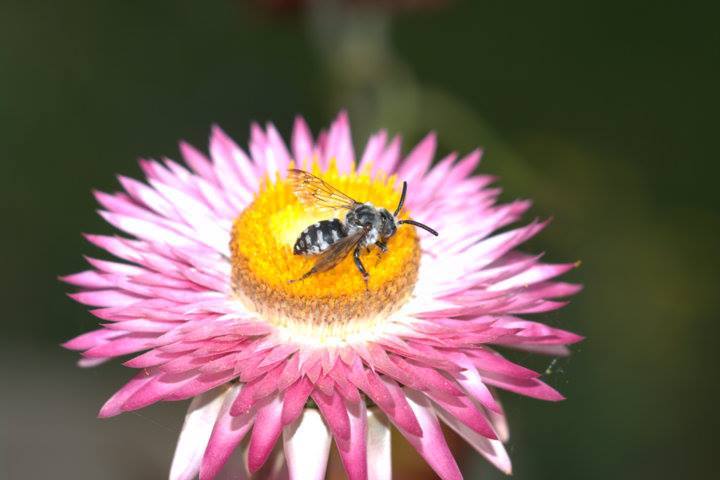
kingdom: Animalia
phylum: Arthropoda
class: Insecta
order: Hymenoptera
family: Apidae
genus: Brachymelecta
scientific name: Brachymelecta californica
